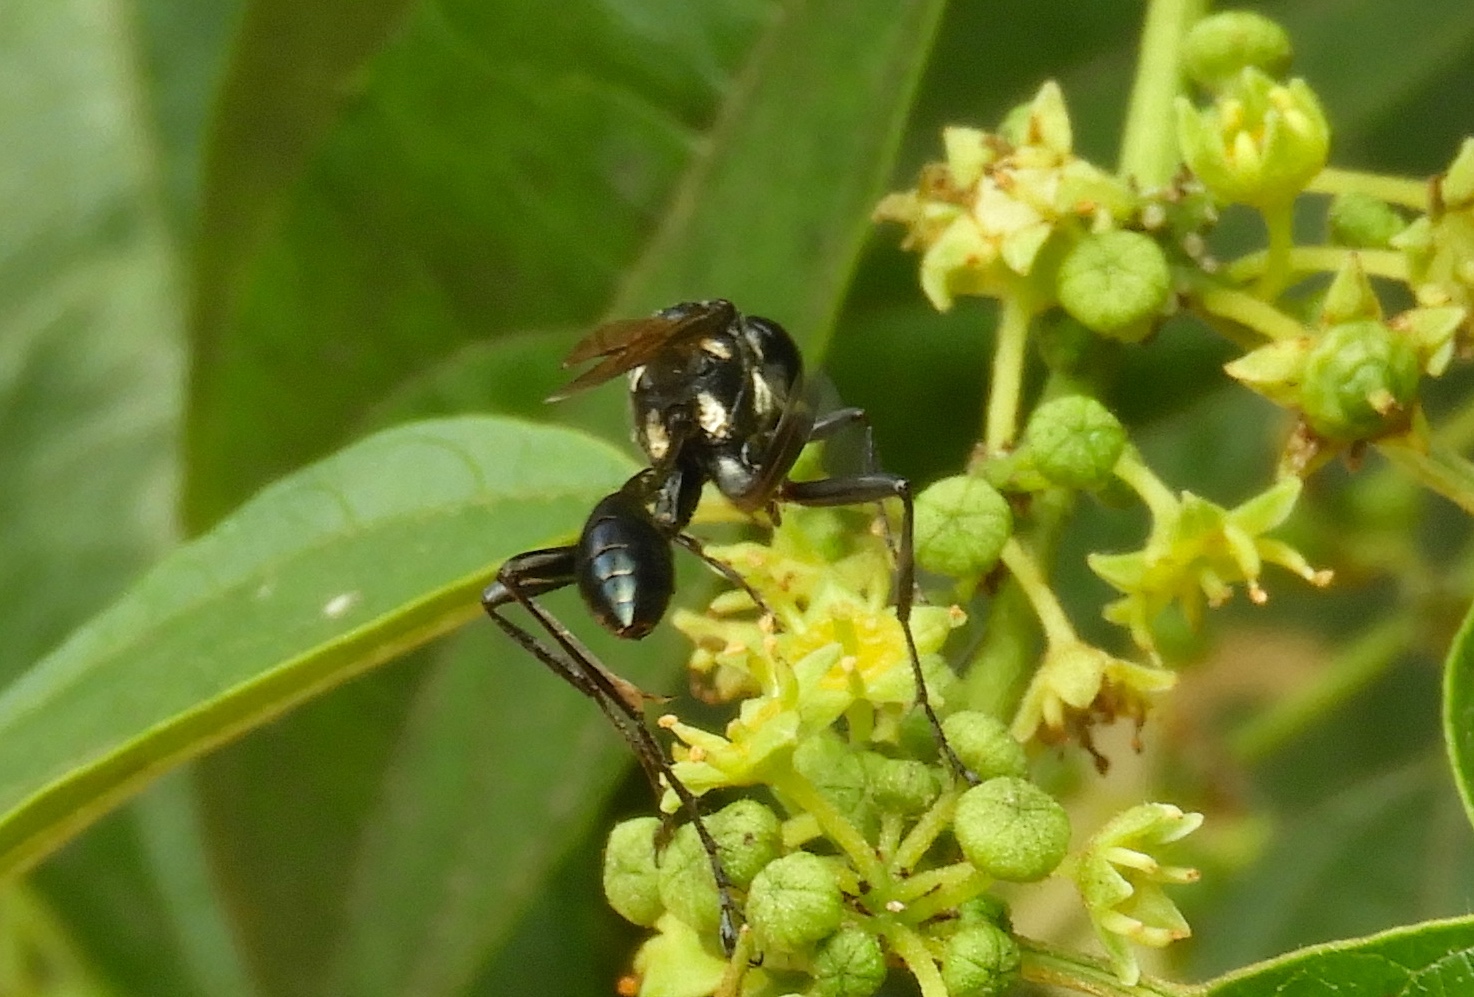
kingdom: Animalia
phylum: Arthropoda
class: Insecta
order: Hymenoptera
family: Sphecidae
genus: Eremnophila
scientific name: Eremnophila
